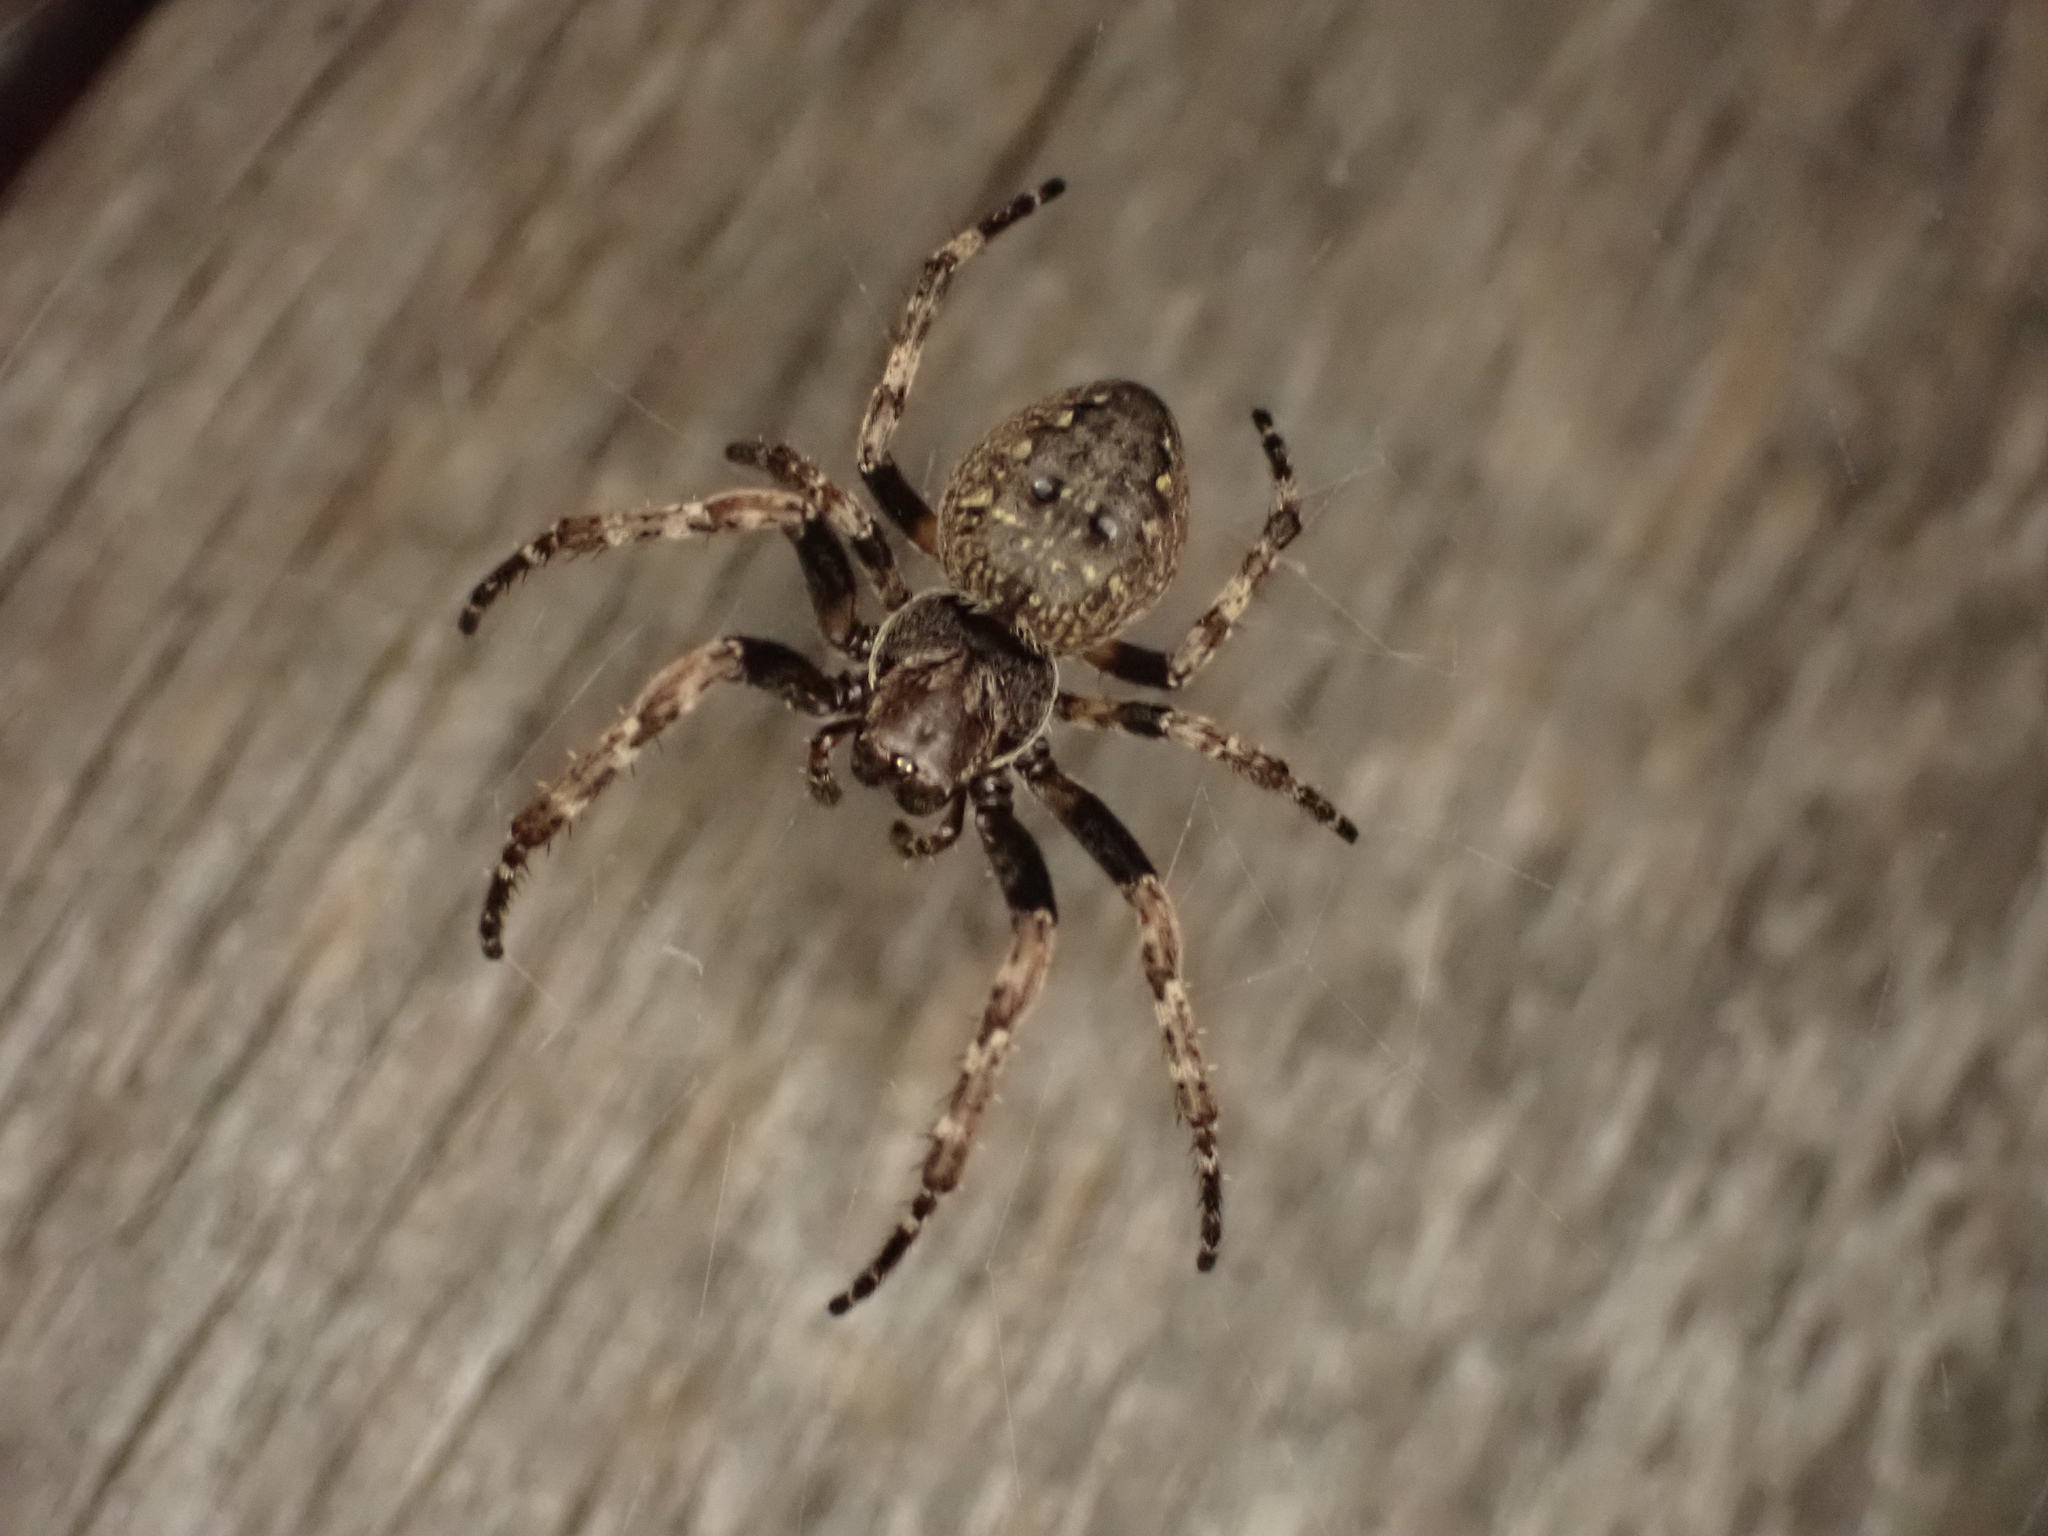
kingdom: Animalia
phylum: Arthropoda
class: Arachnida
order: Araneae
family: Araneidae
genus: Nuctenea
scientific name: Nuctenea umbratica
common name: Toad spider
